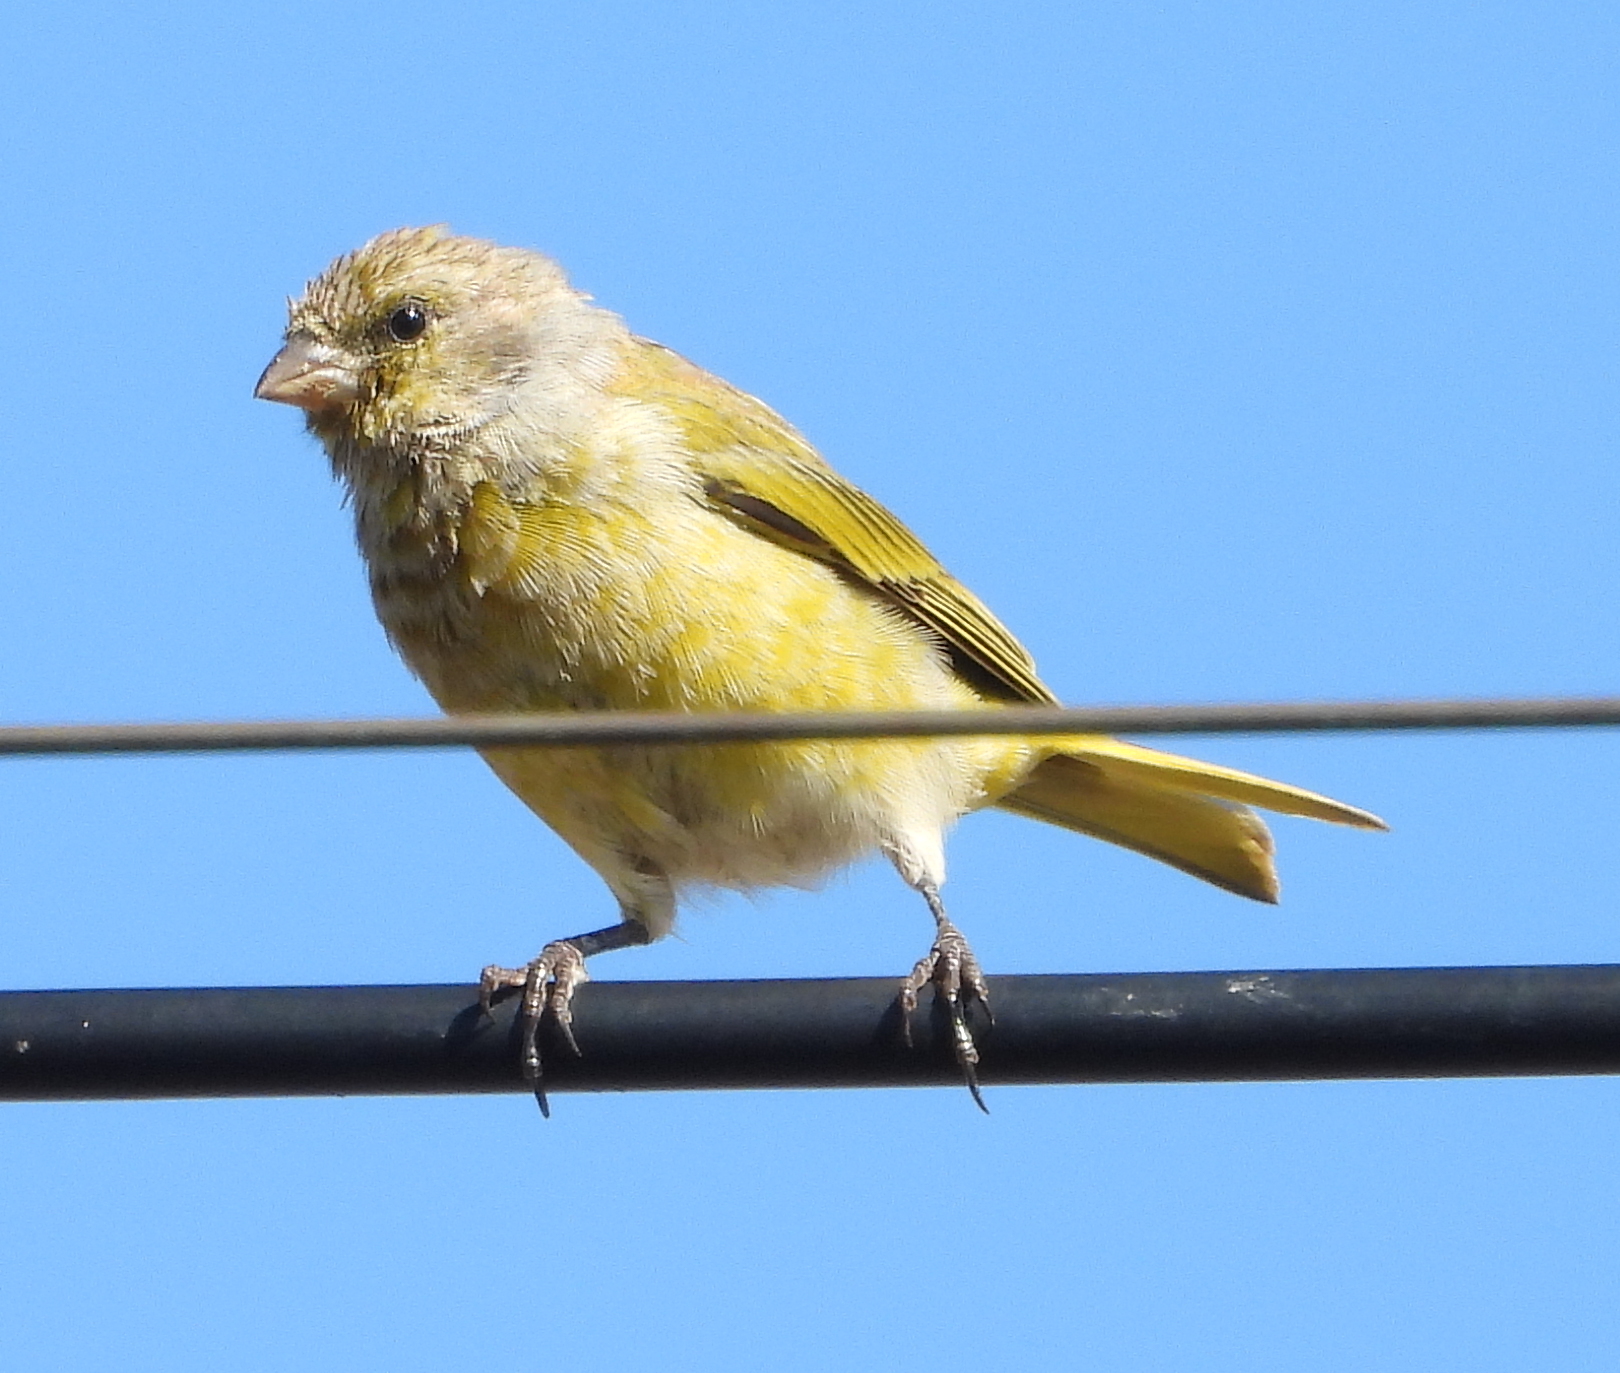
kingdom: Animalia
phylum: Chordata
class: Aves
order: Passeriformes
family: Fringillidae
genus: Serinus
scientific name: Serinus canicollis
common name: Cape canary
